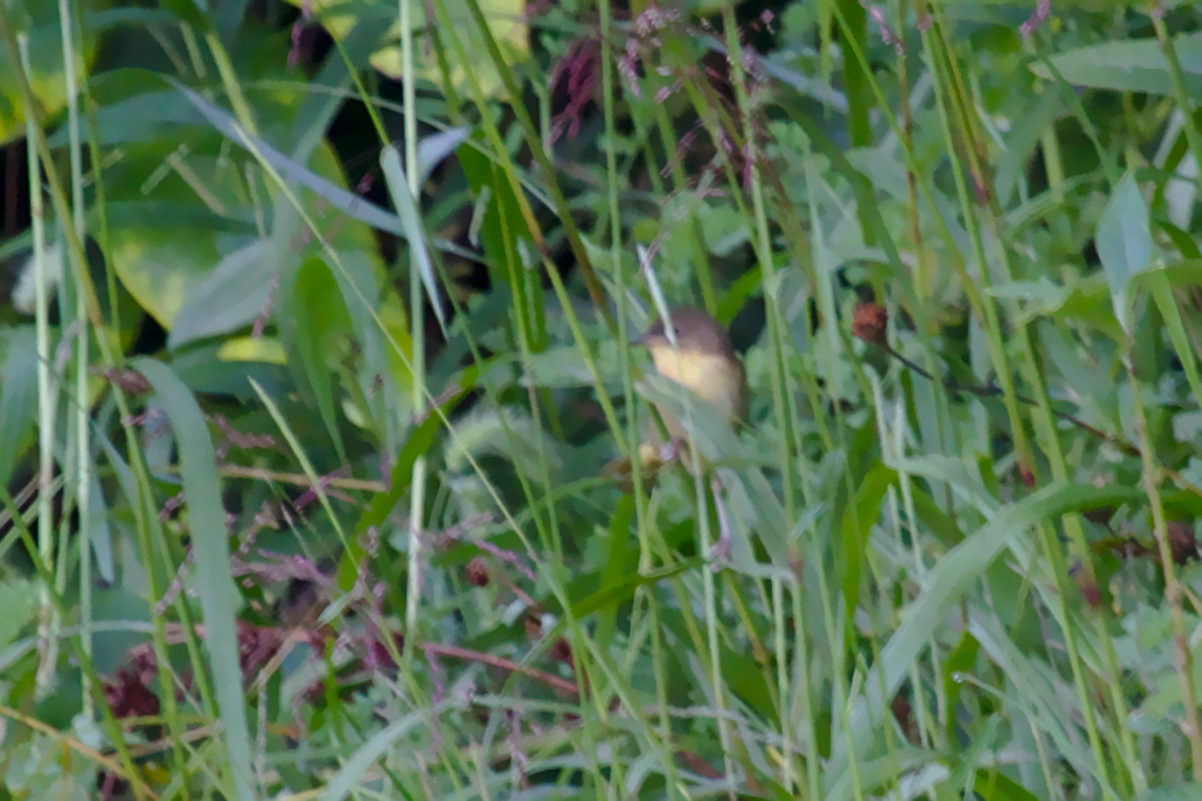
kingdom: Animalia
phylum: Chordata
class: Aves
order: Passeriformes
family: Parulidae
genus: Geothlypis
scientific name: Geothlypis trichas
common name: Common yellowthroat
